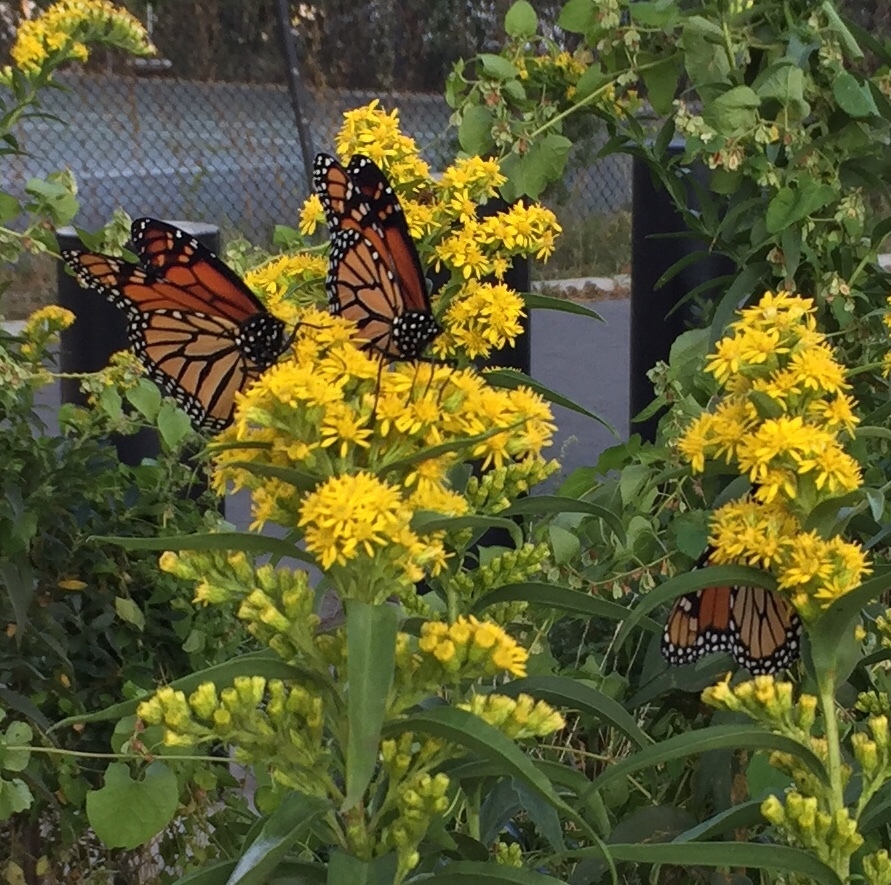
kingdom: Animalia
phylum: Arthropoda
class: Insecta
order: Lepidoptera
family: Nymphalidae
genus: Danaus
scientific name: Danaus plexippus
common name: Monarch
